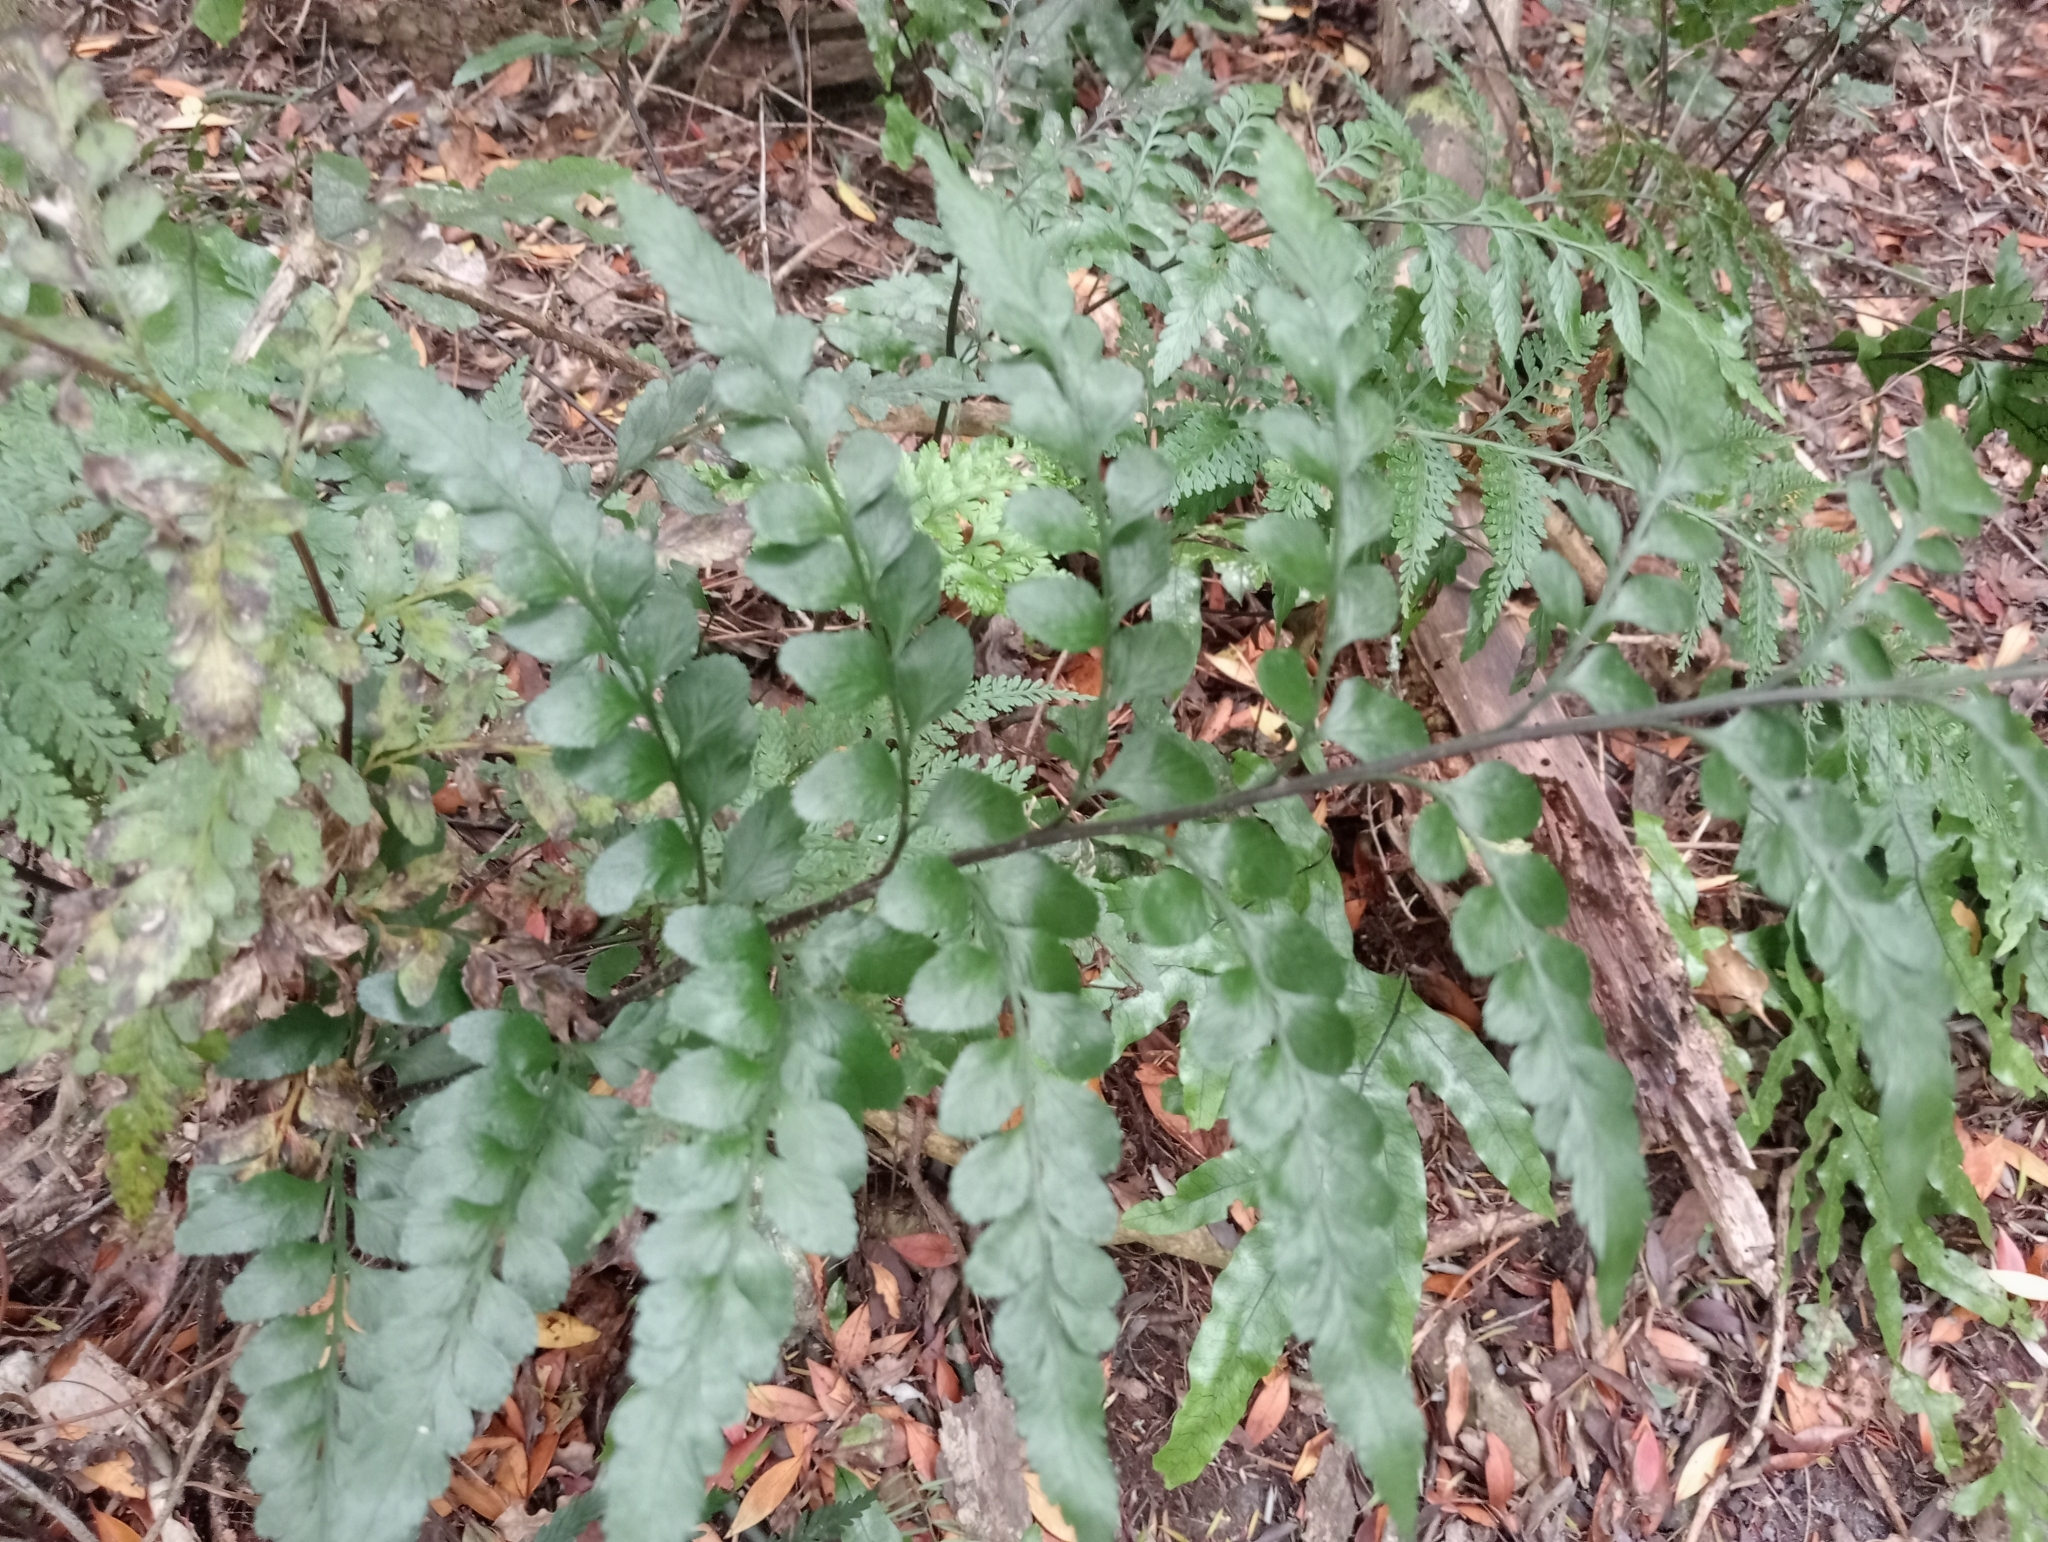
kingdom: Plantae
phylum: Tracheophyta
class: Polypodiopsida
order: Polypodiales
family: Aspleniaceae
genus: Asplenium
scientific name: Asplenium lyallii
